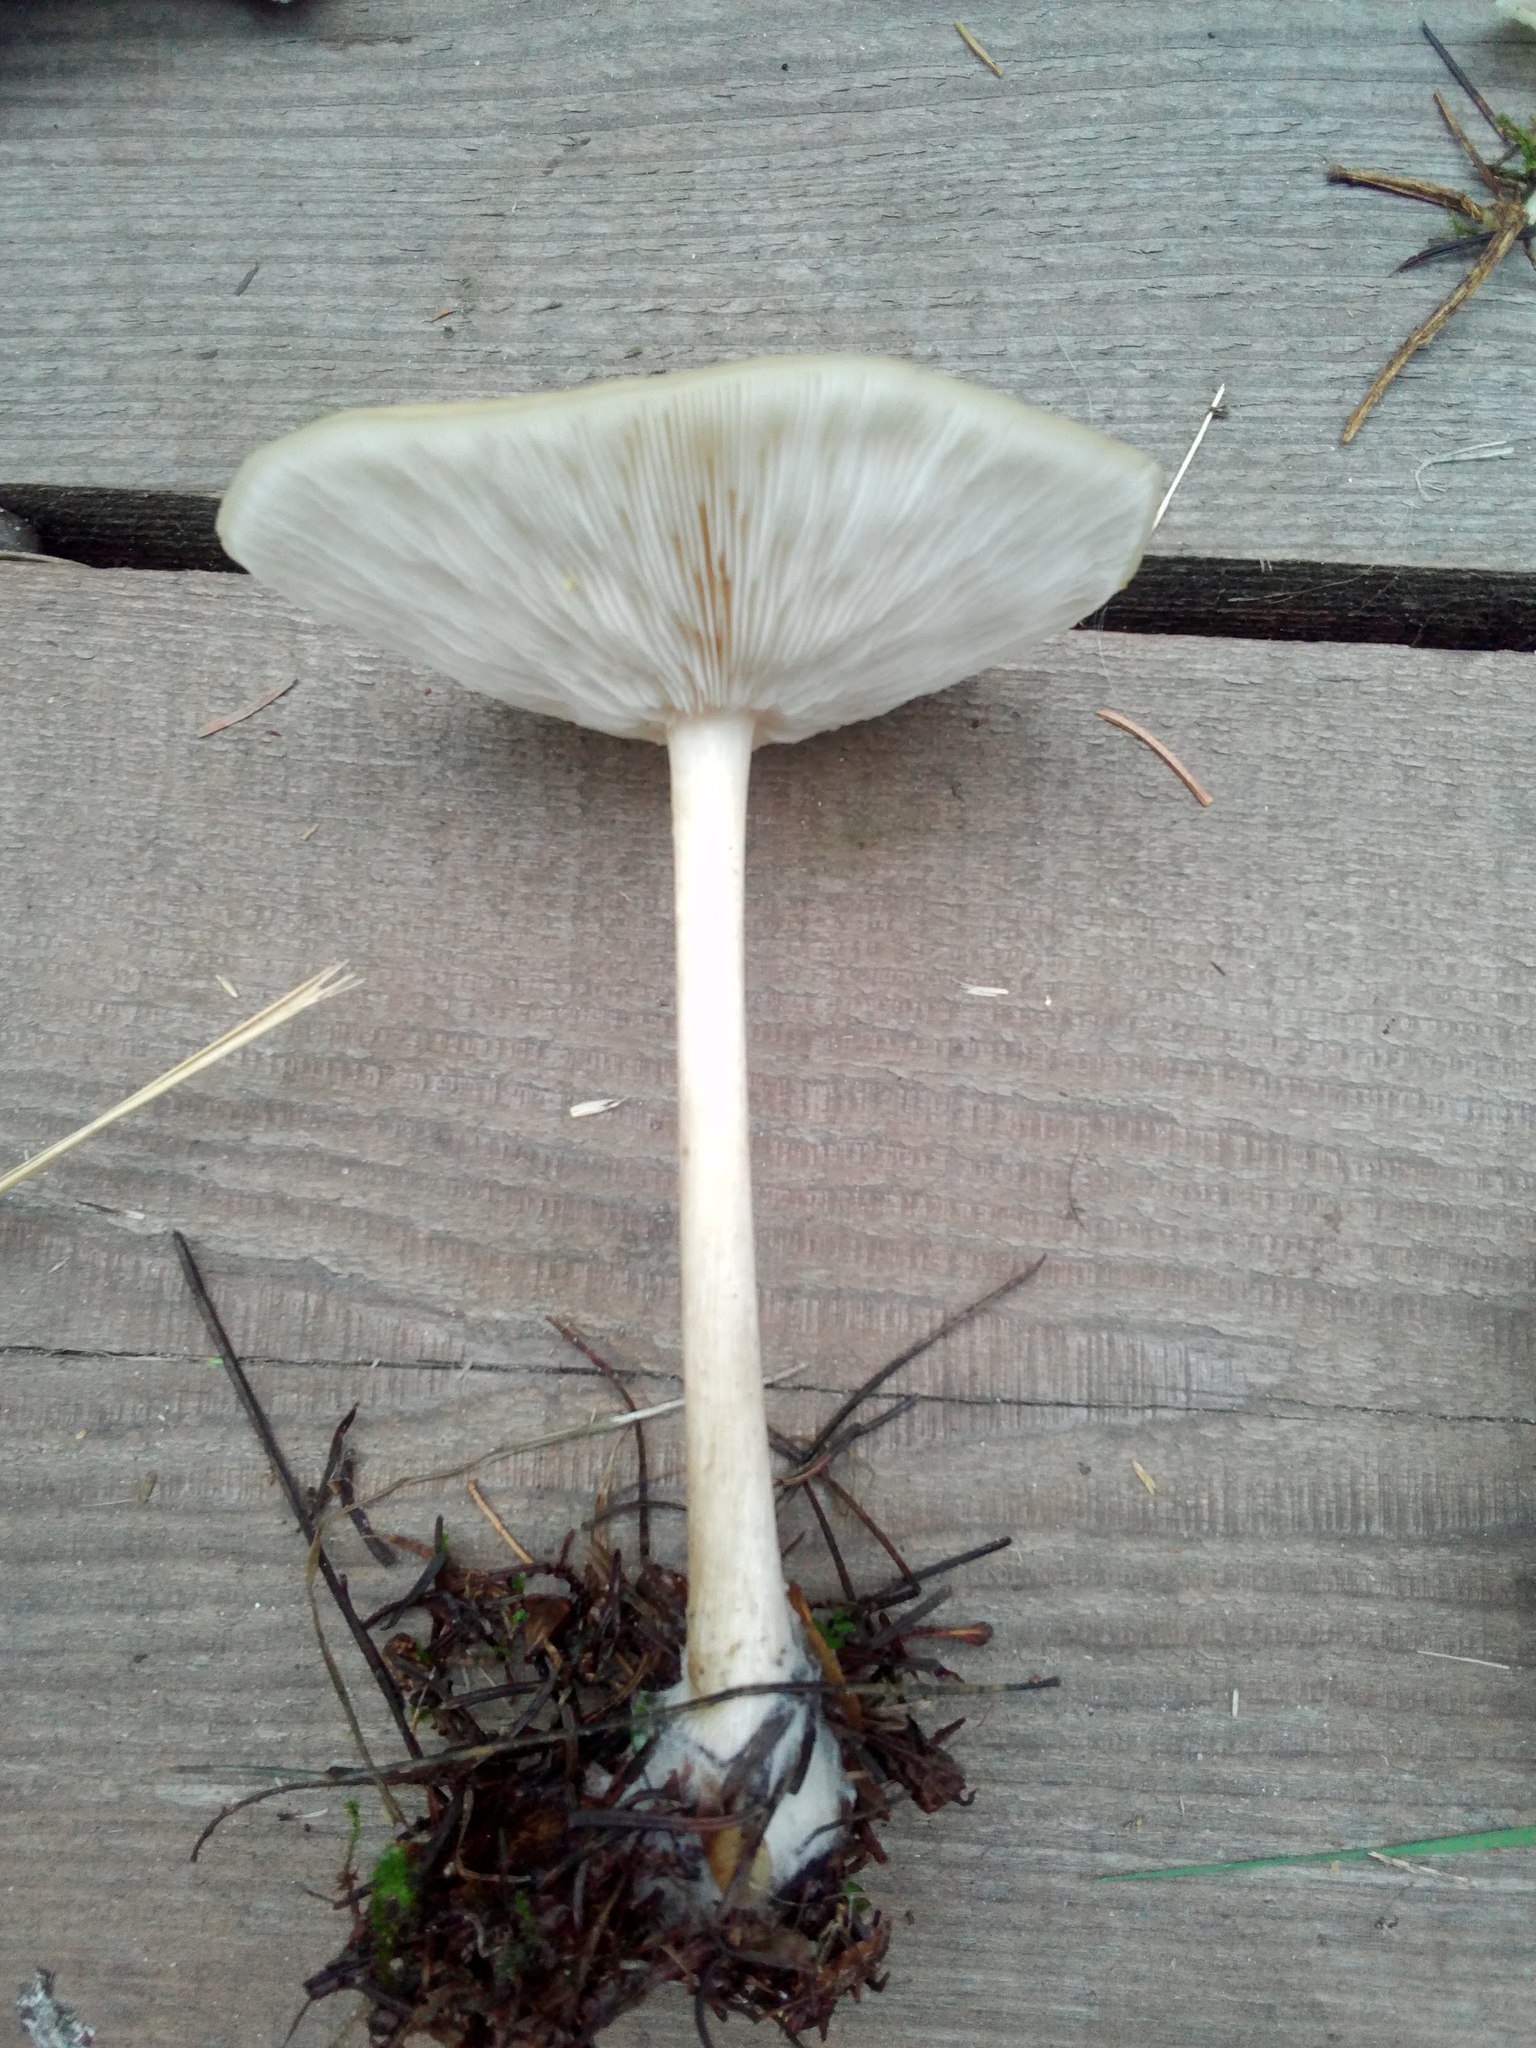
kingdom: Fungi
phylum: Basidiomycota
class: Agaricomycetes
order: Agaricales
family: Tricholomataceae
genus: Melanoleuca
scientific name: Melanoleuca strictipes
